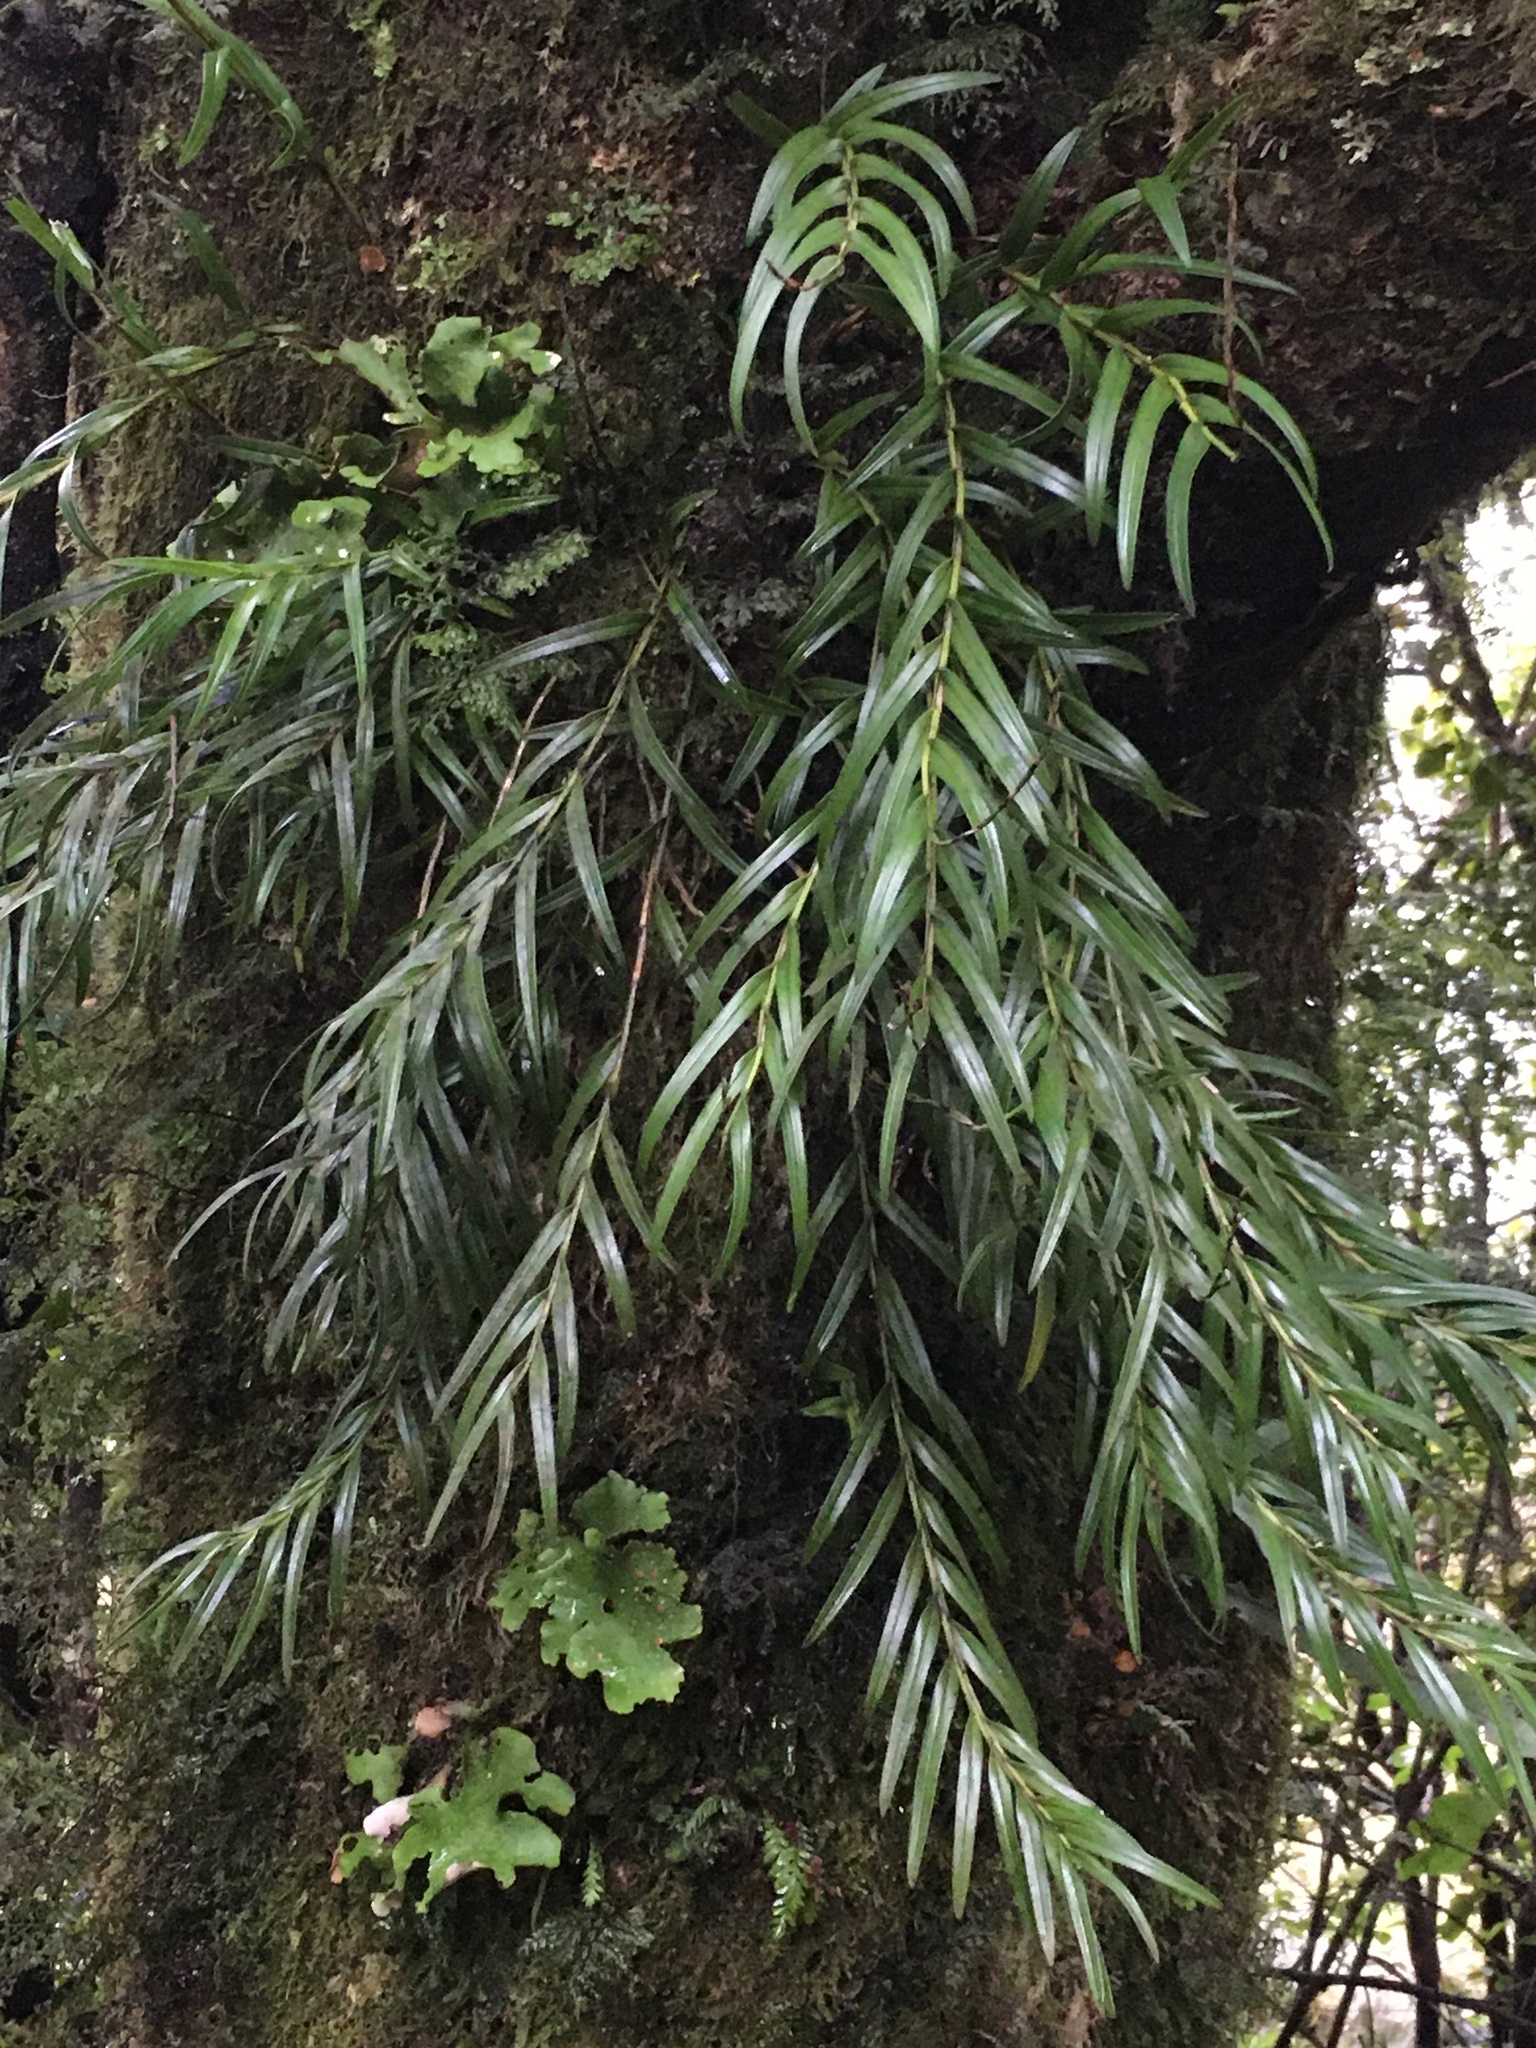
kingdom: Plantae
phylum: Tracheophyta
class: Liliopsida
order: Asparagales
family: Orchidaceae
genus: Earina
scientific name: Earina autumnalis
